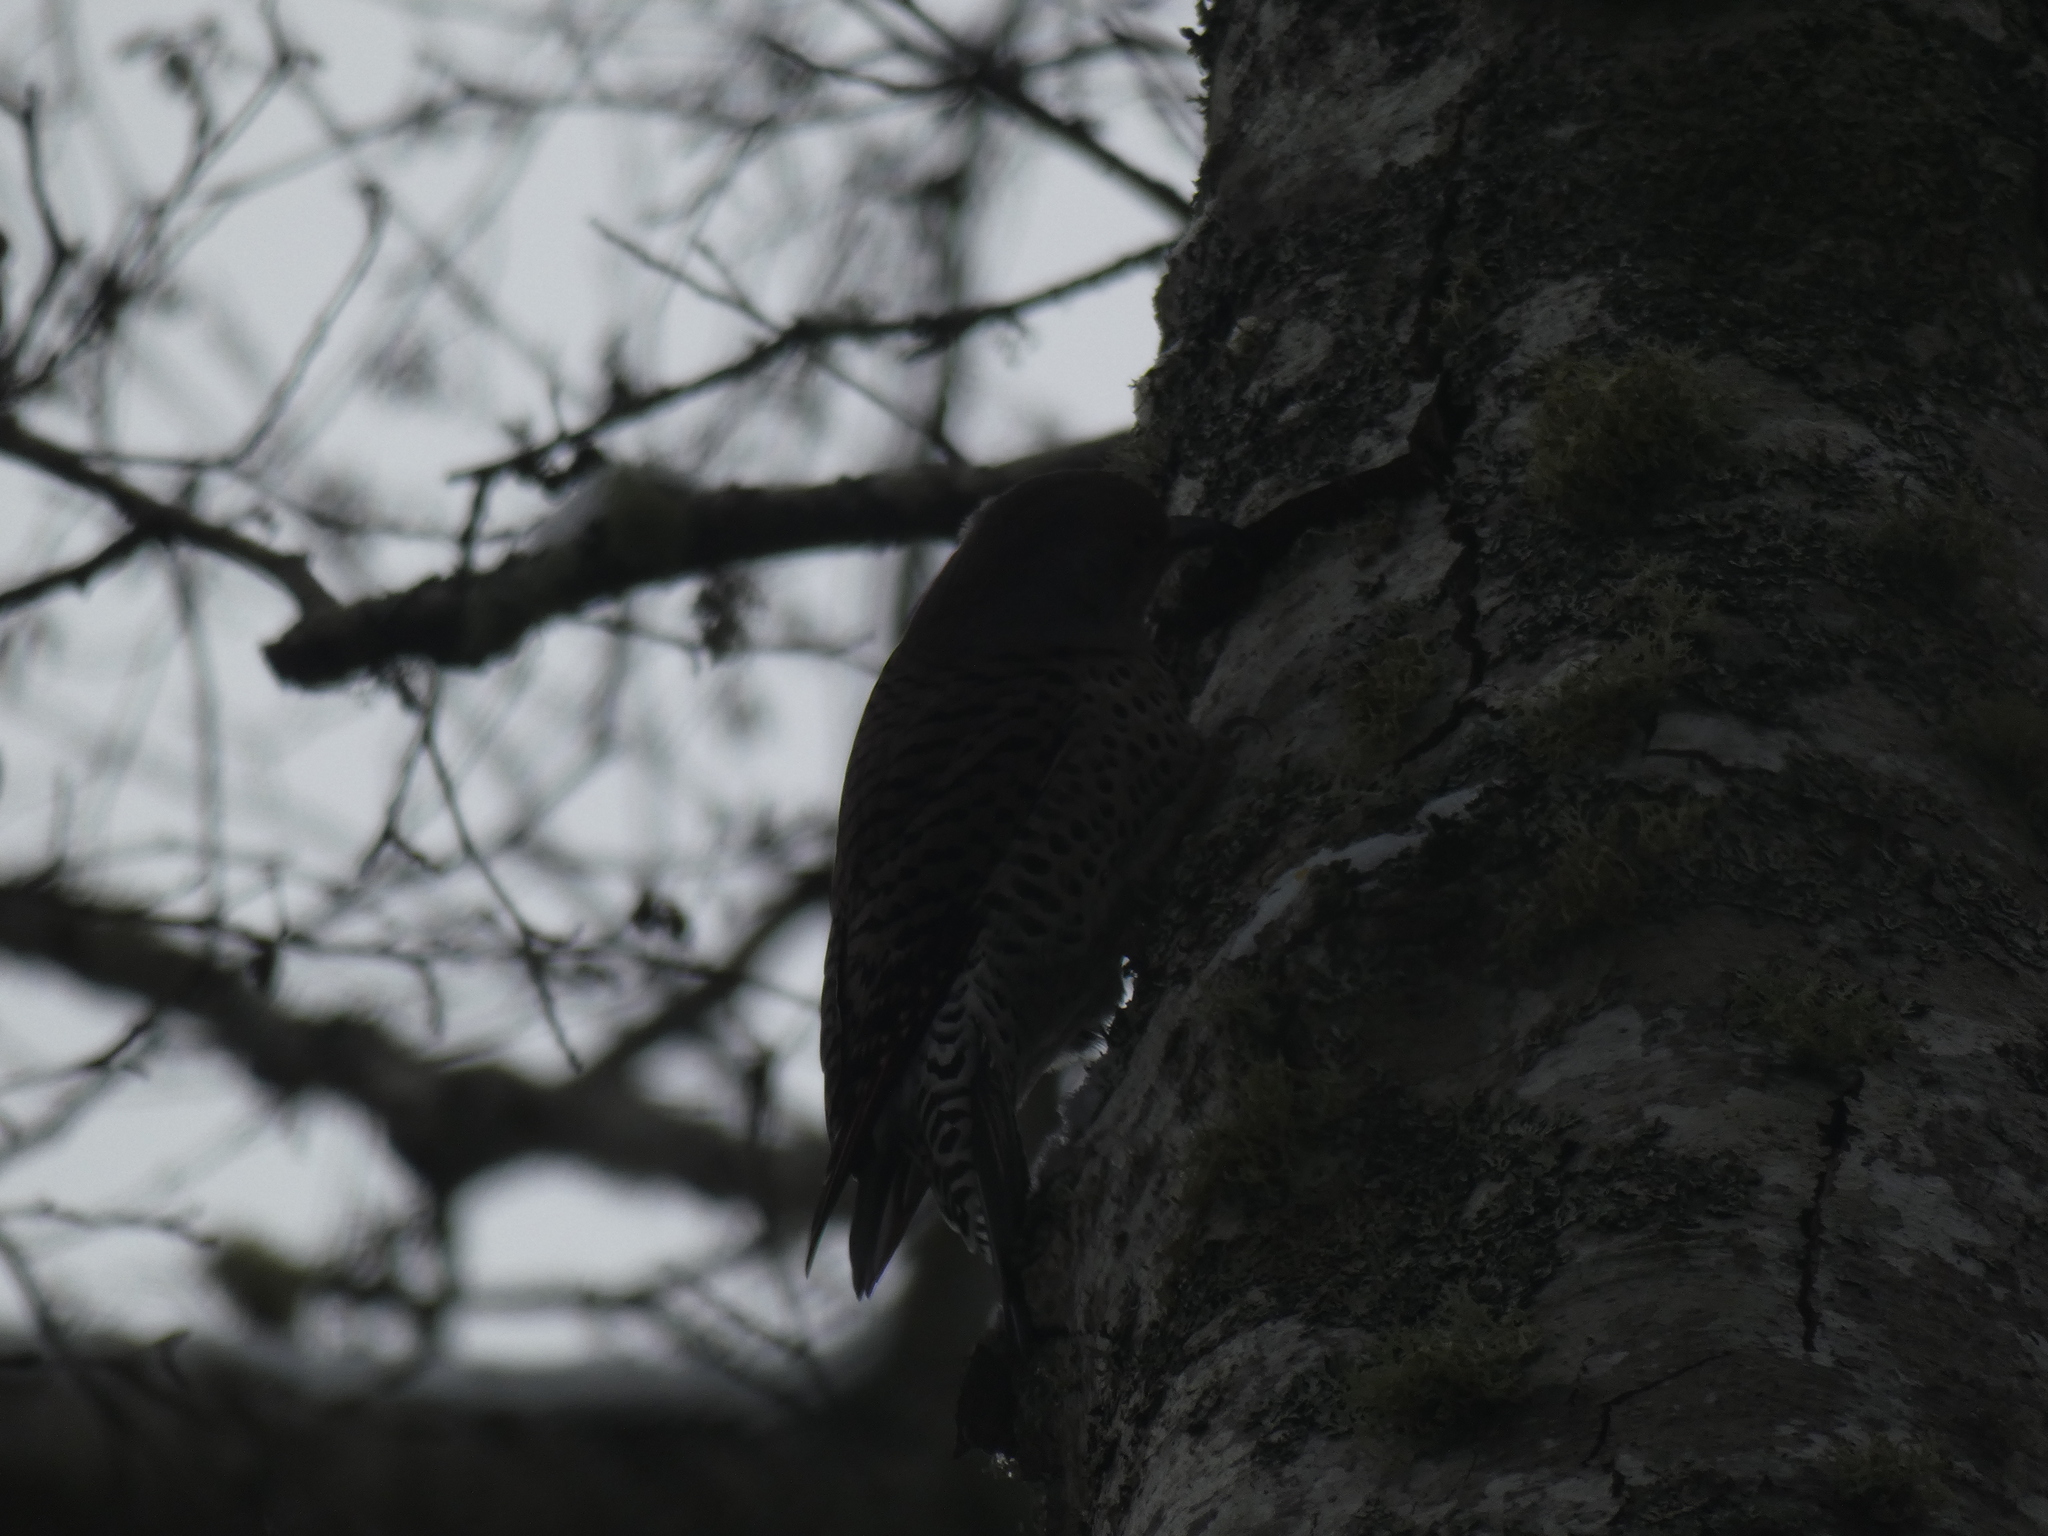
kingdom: Animalia
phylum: Chordata
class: Aves
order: Piciformes
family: Picidae
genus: Colaptes
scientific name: Colaptes auratus
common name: Northern flicker
